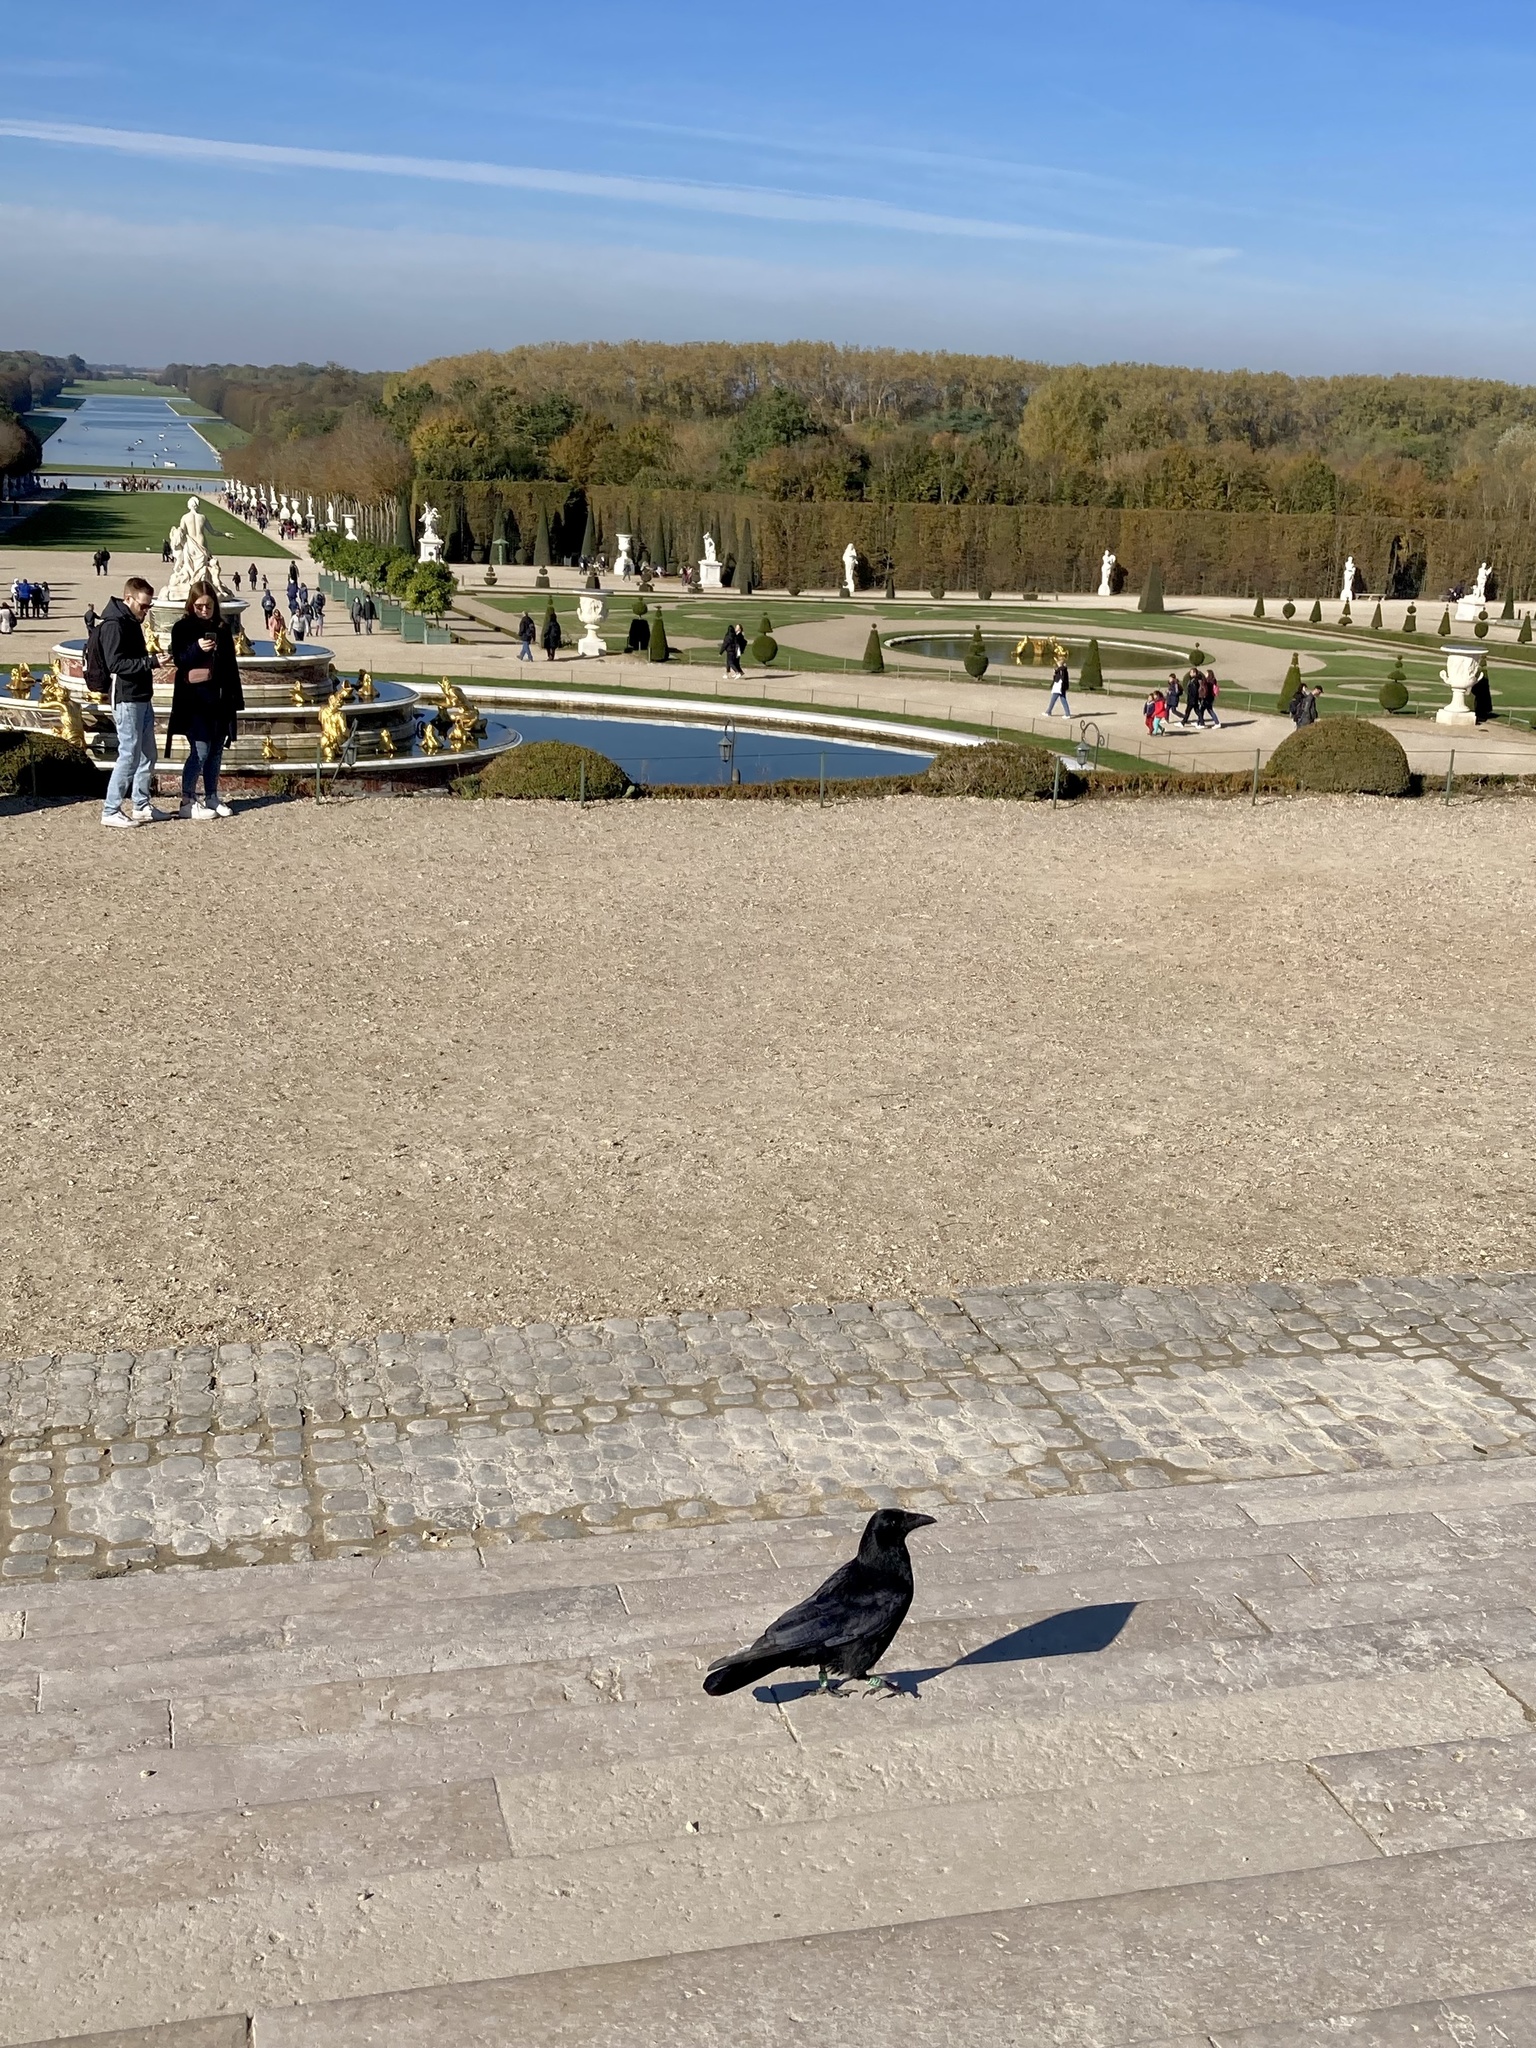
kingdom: Animalia
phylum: Chordata
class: Aves
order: Passeriformes
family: Corvidae
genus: Corvus
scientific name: Corvus corone
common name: Carrion crow
